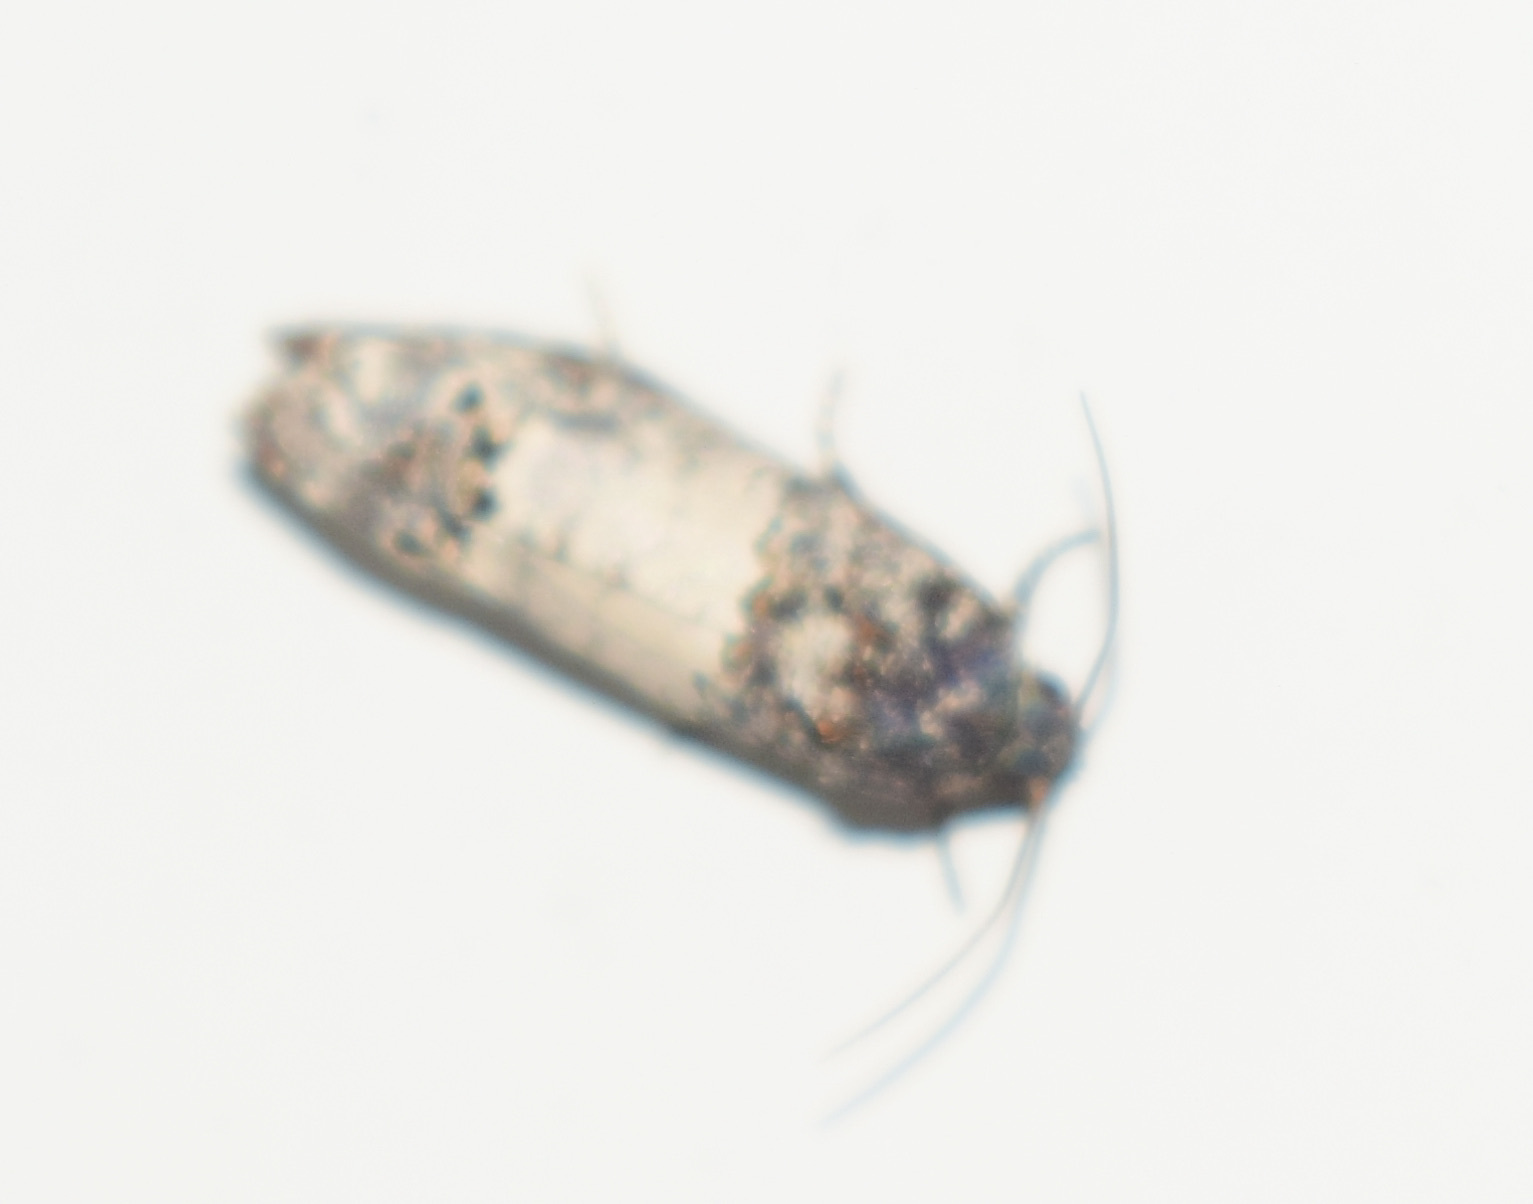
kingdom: Animalia
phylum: Arthropoda
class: Insecta
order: Lepidoptera
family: Tortricidae
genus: Epiblema
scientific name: Epiblema carolinana
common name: Gray-blotched epiblema moth
